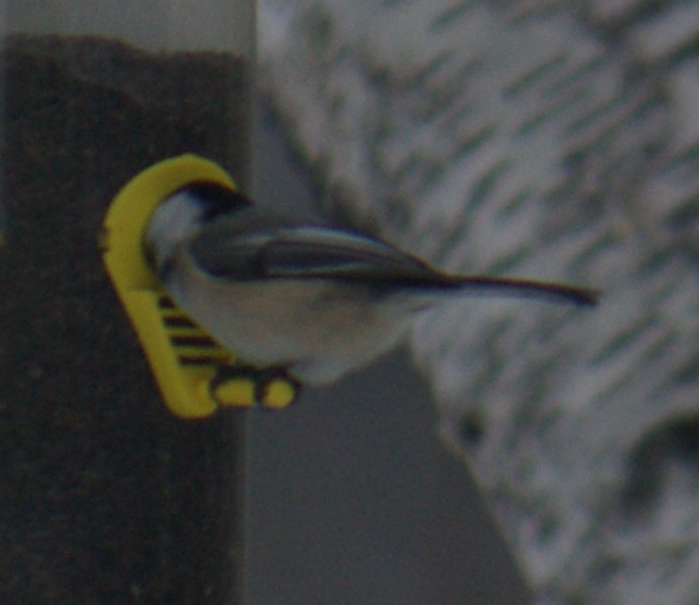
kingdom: Animalia
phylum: Chordata
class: Aves
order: Passeriformes
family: Paridae
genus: Poecile
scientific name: Poecile atricapillus
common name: Black-capped chickadee
